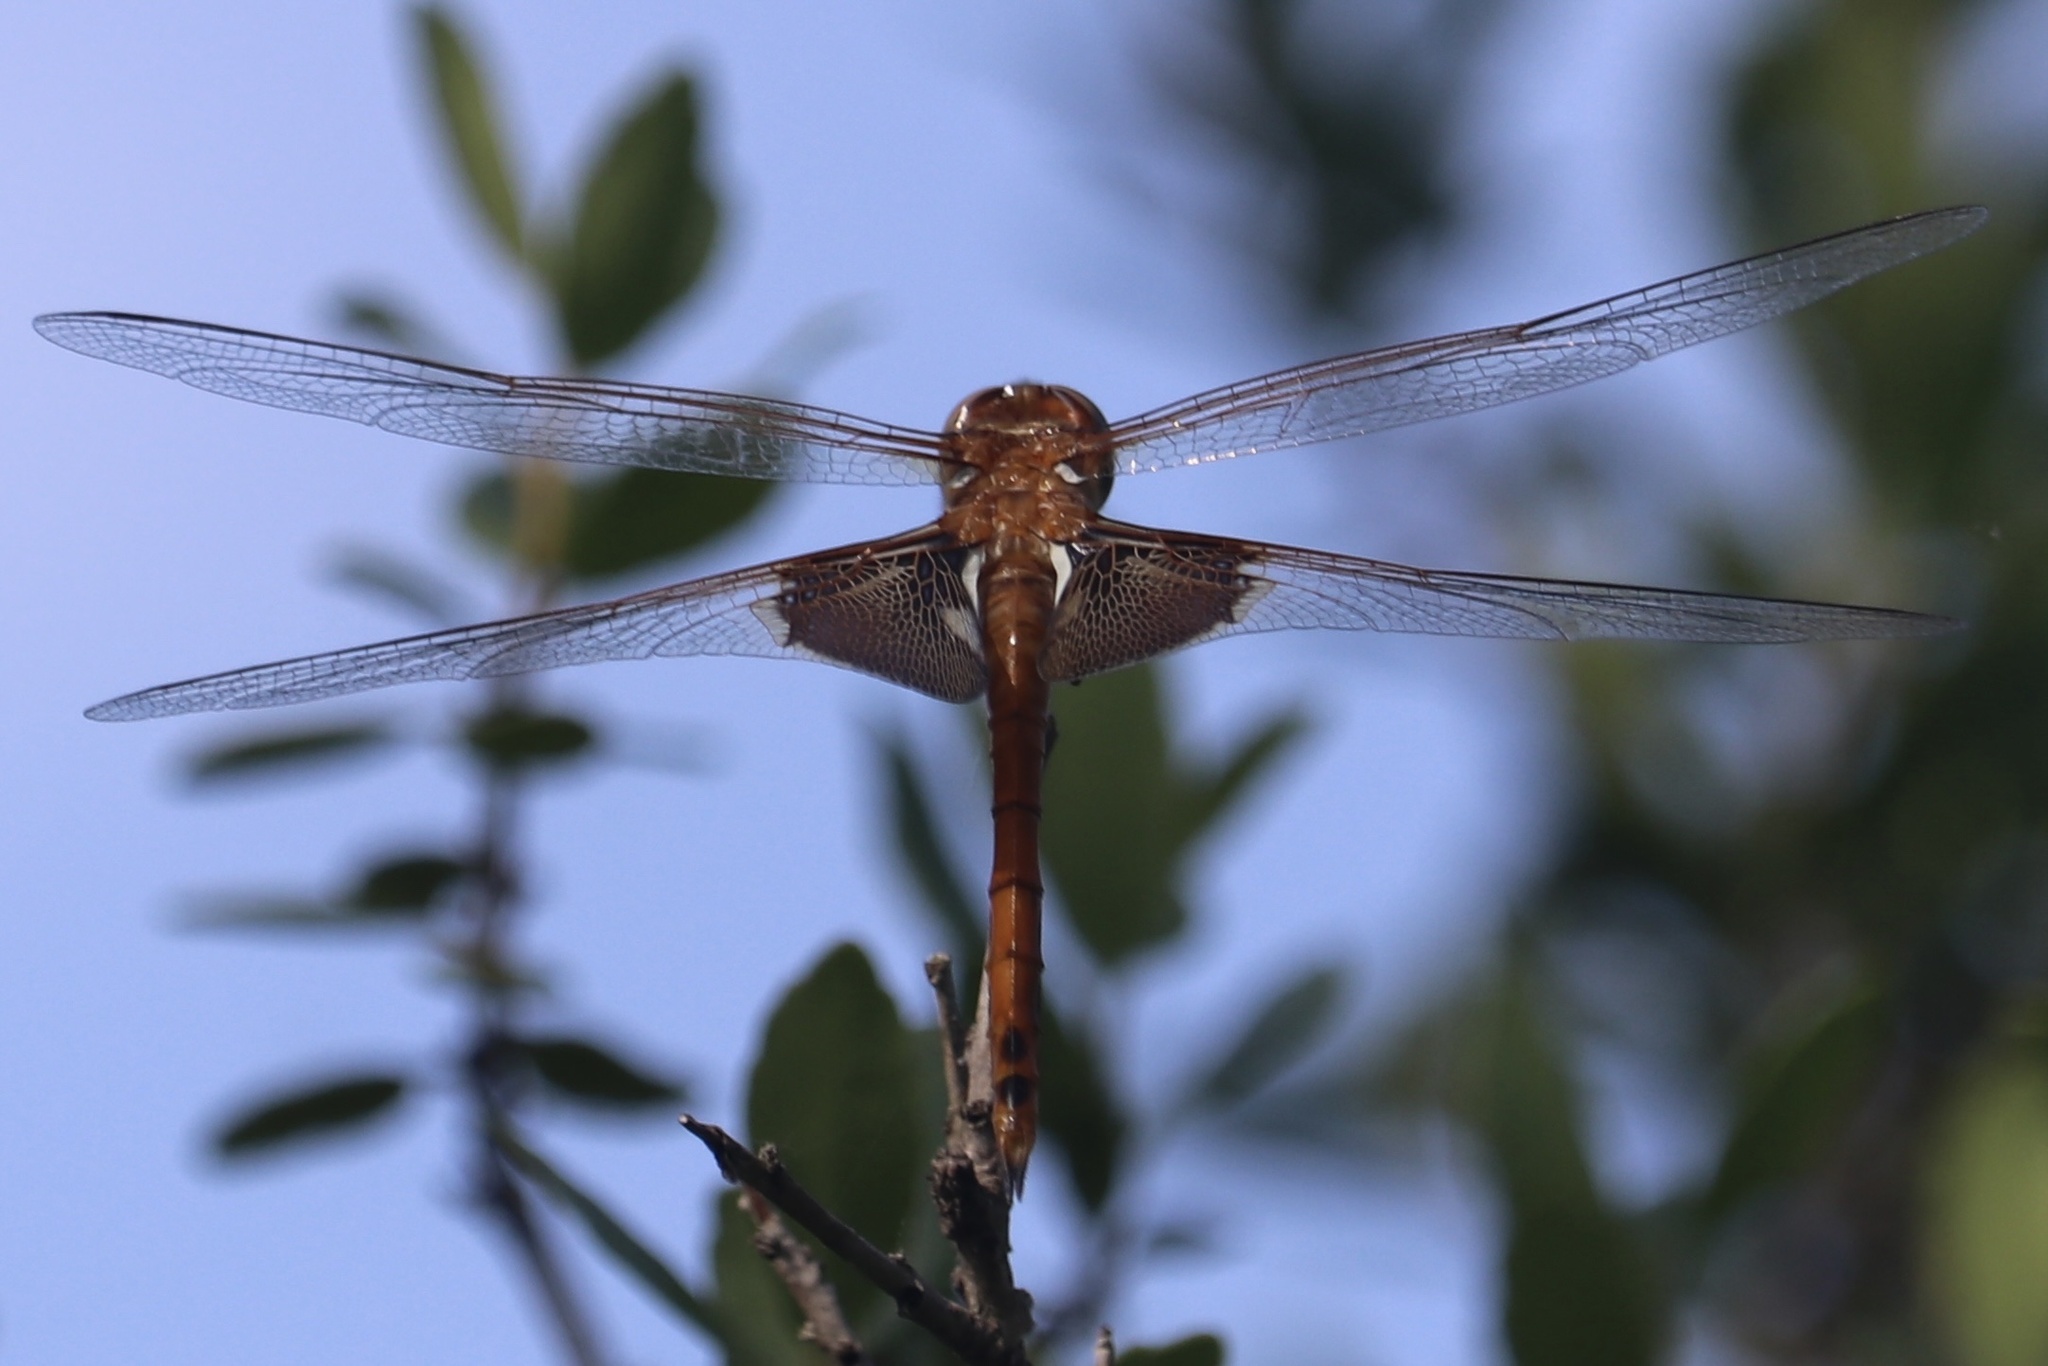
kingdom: Animalia
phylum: Arthropoda
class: Insecta
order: Odonata
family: Libellulidae
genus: Tramea
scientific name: Tramea onusta
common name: Red saddlebags
